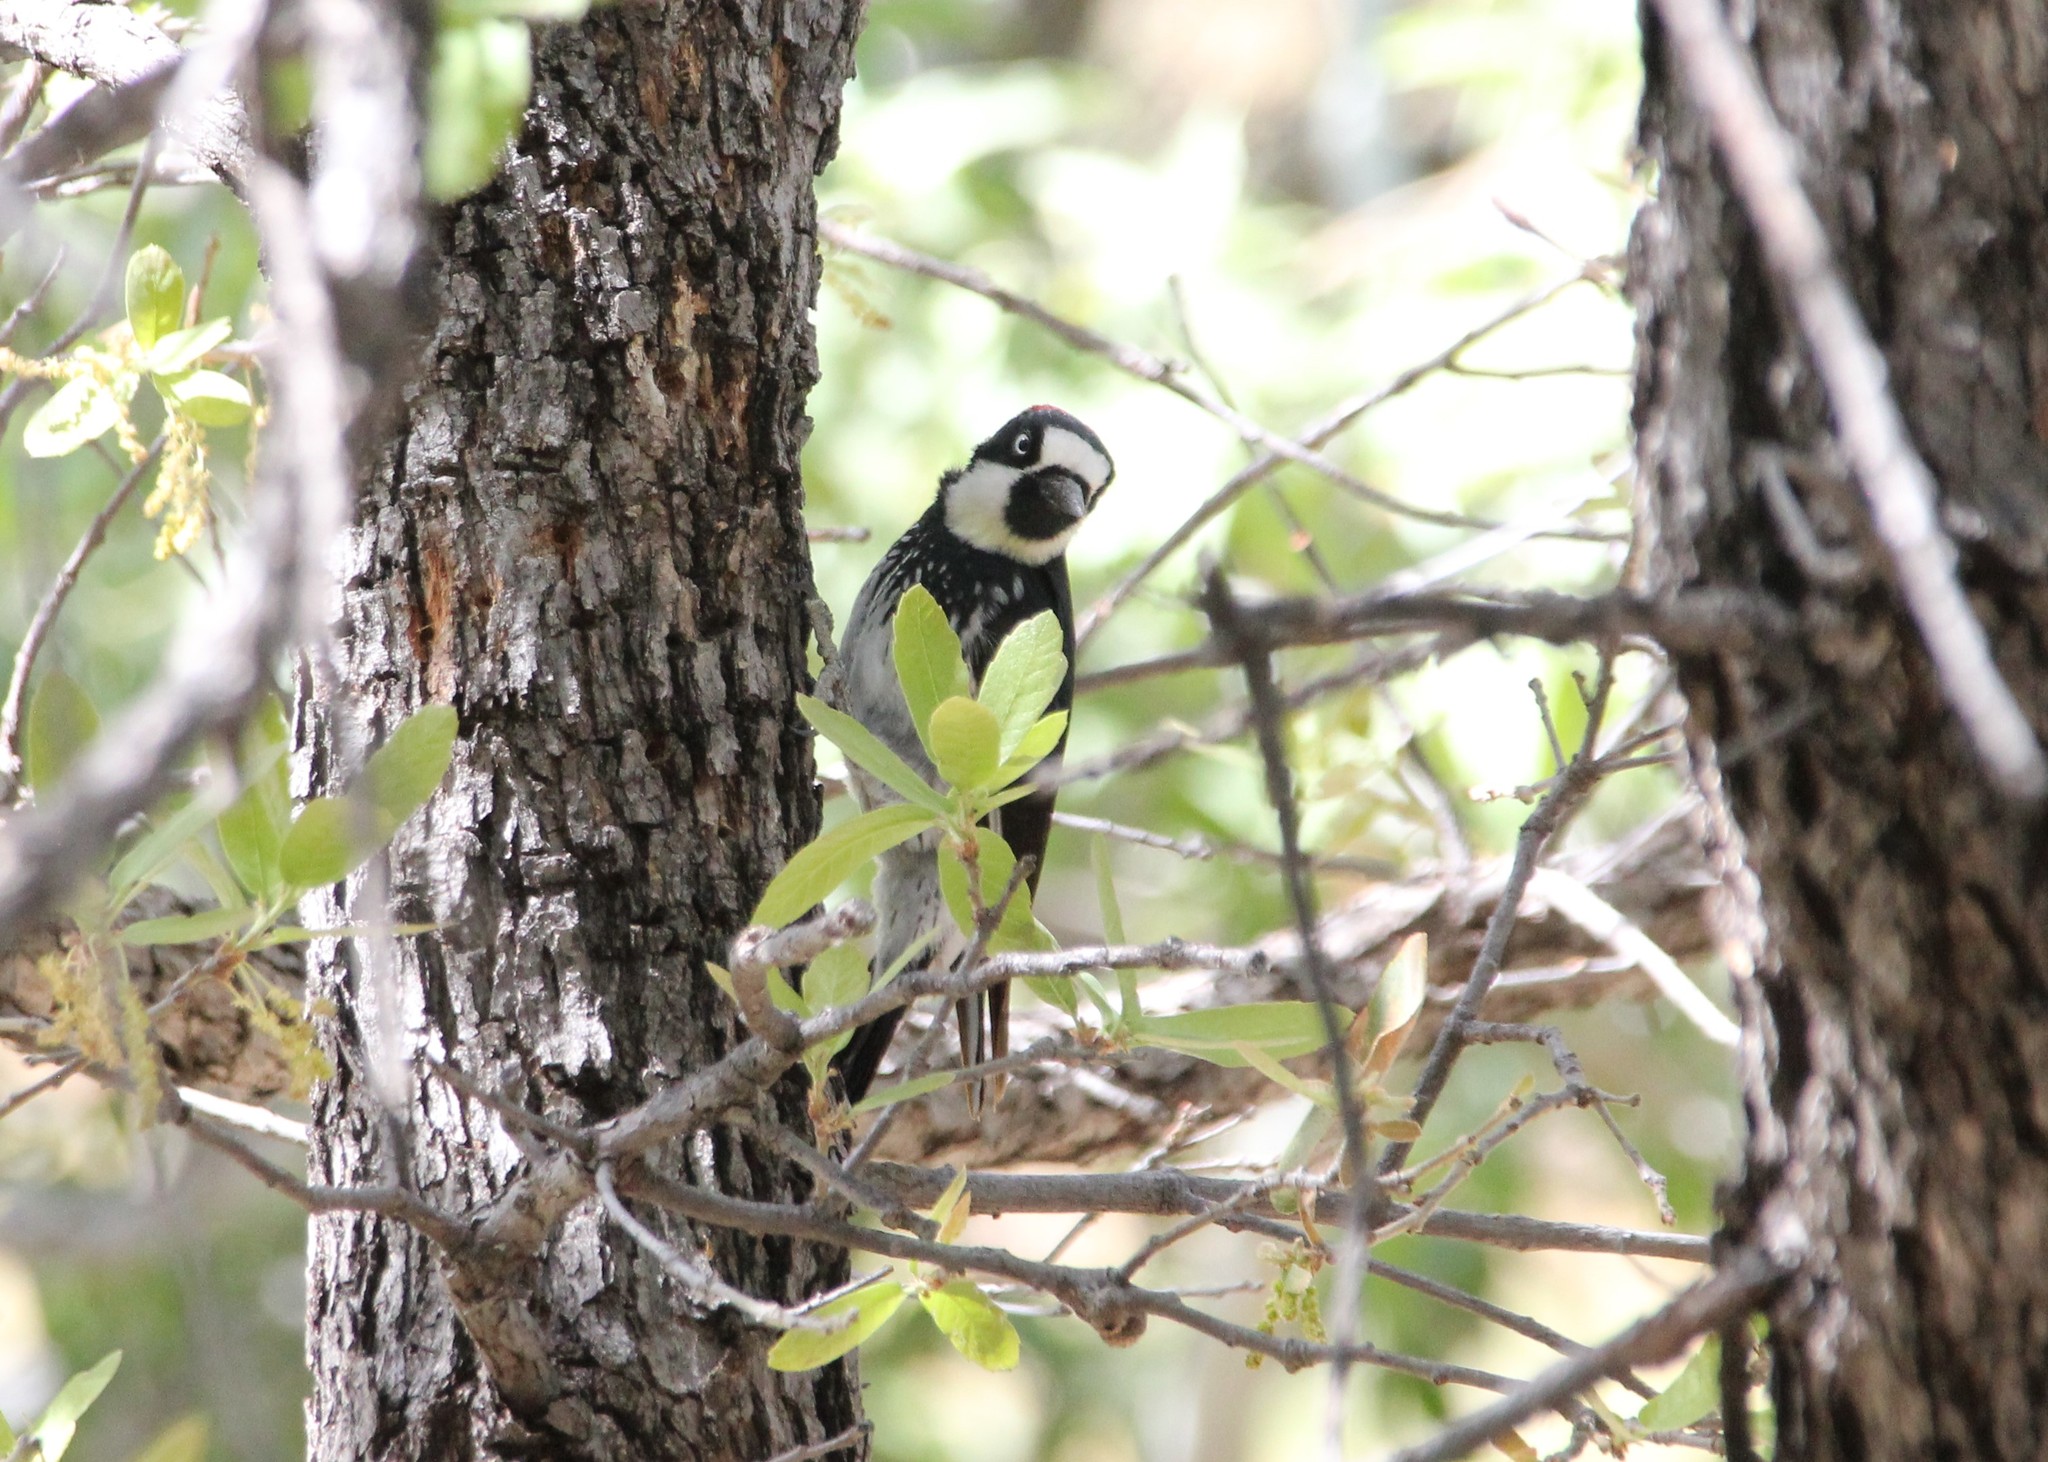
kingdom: Animalia
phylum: Chordata
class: Aves
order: Piciformes
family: Picidae
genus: Melanerpes
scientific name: Melanerpes formicivorus
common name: Acorn woodpecker
